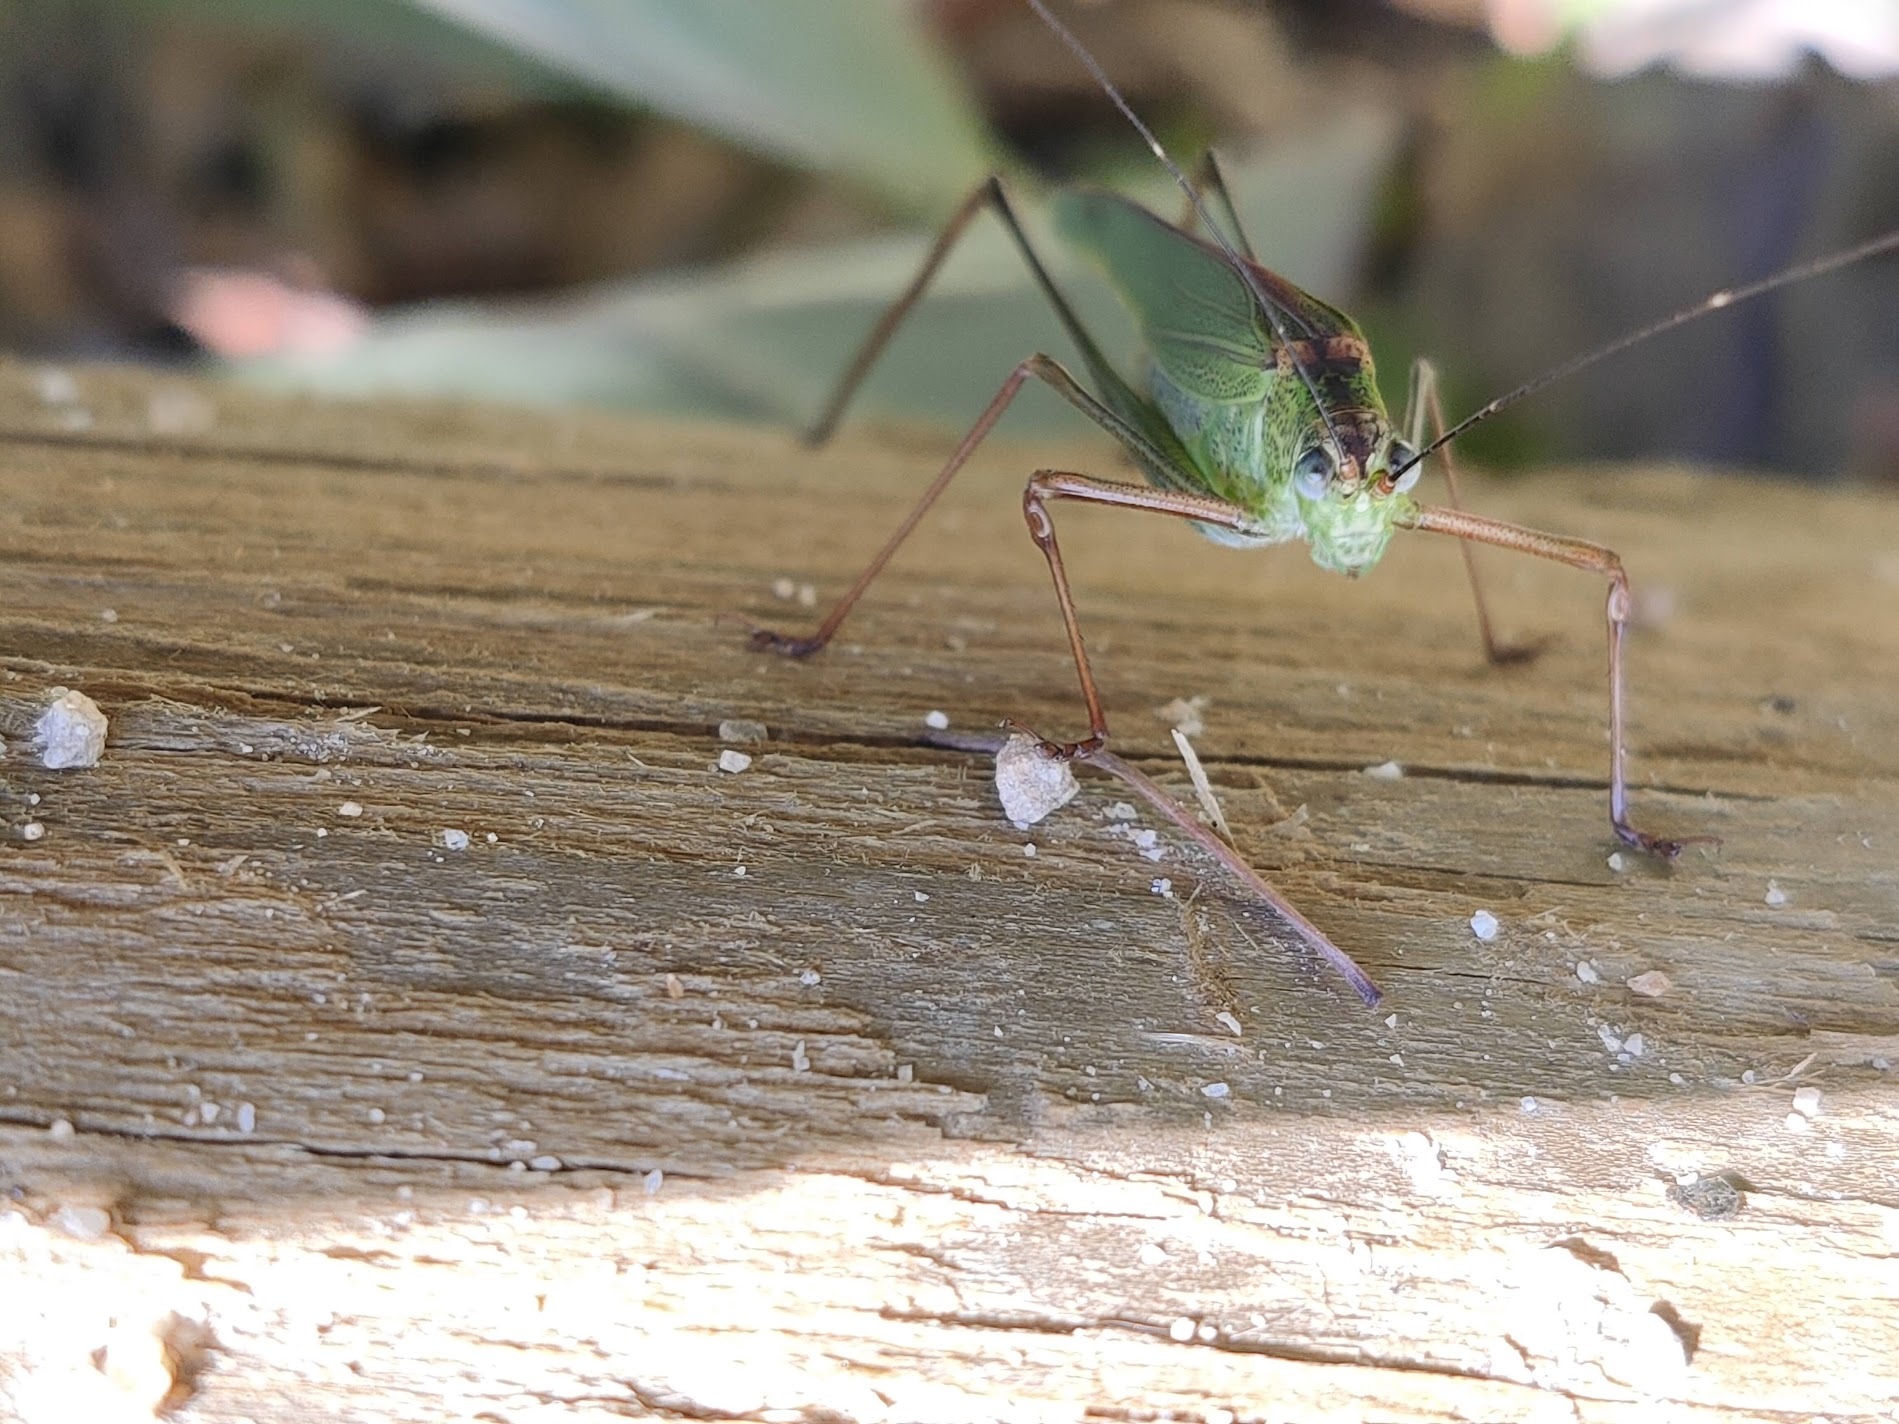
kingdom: Animalia
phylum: Arthropoda
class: Insecta
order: Orthoptera
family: Tettigoniidae
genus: Phaneroptera
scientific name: Phaneroptera nigroantennata
